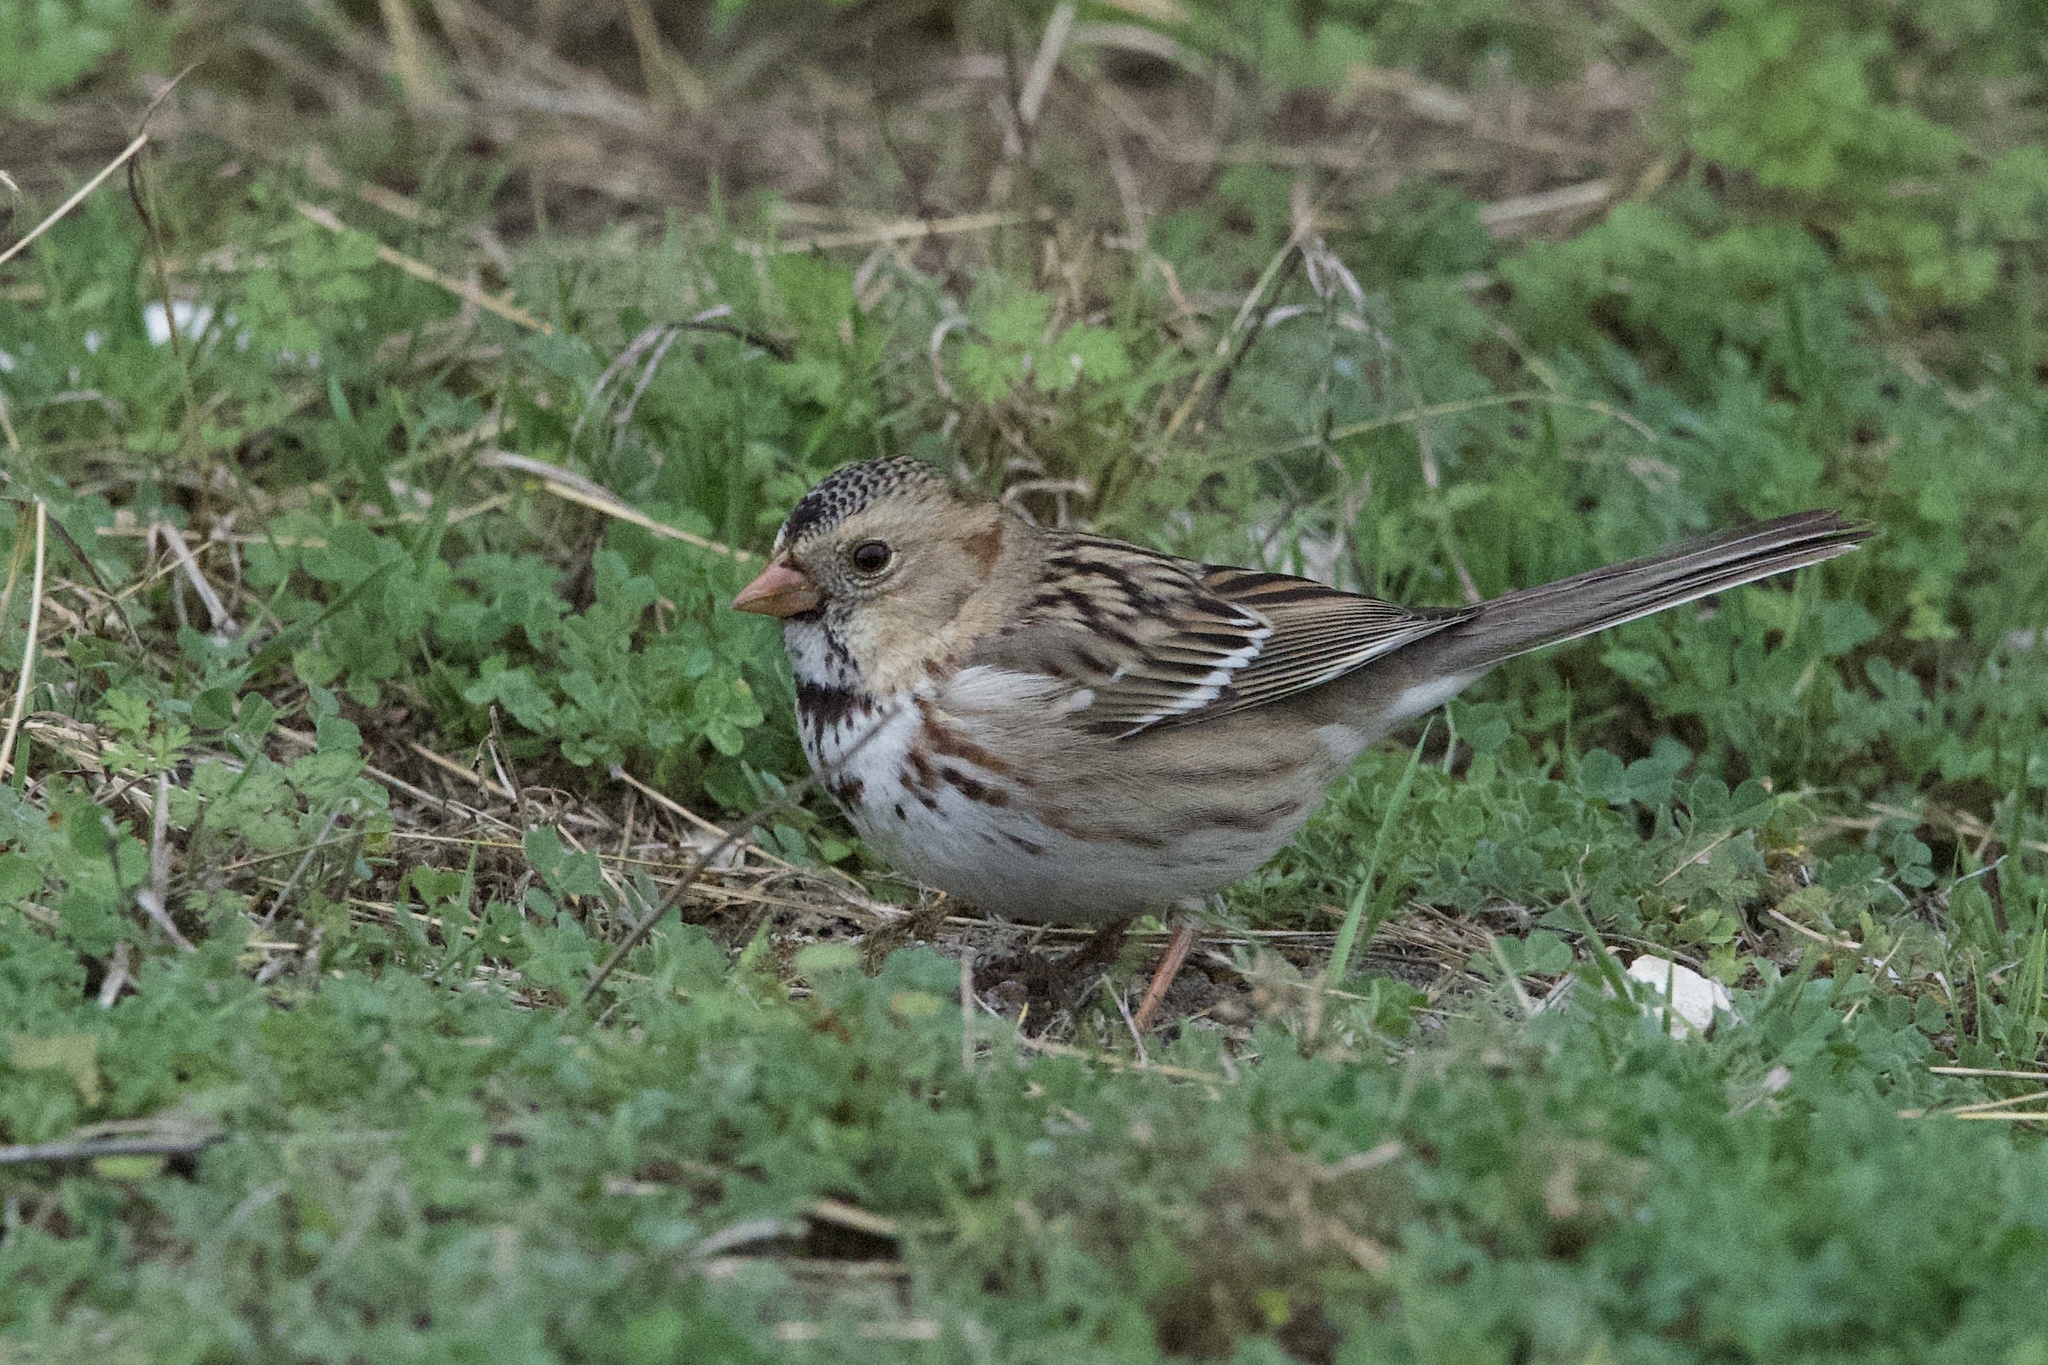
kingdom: Animalia
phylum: Chordata
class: Aves
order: Passeriformes
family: Passerellidae
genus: Zonotrichia
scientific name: Zonotrichia querula
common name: Harris's sparrow
